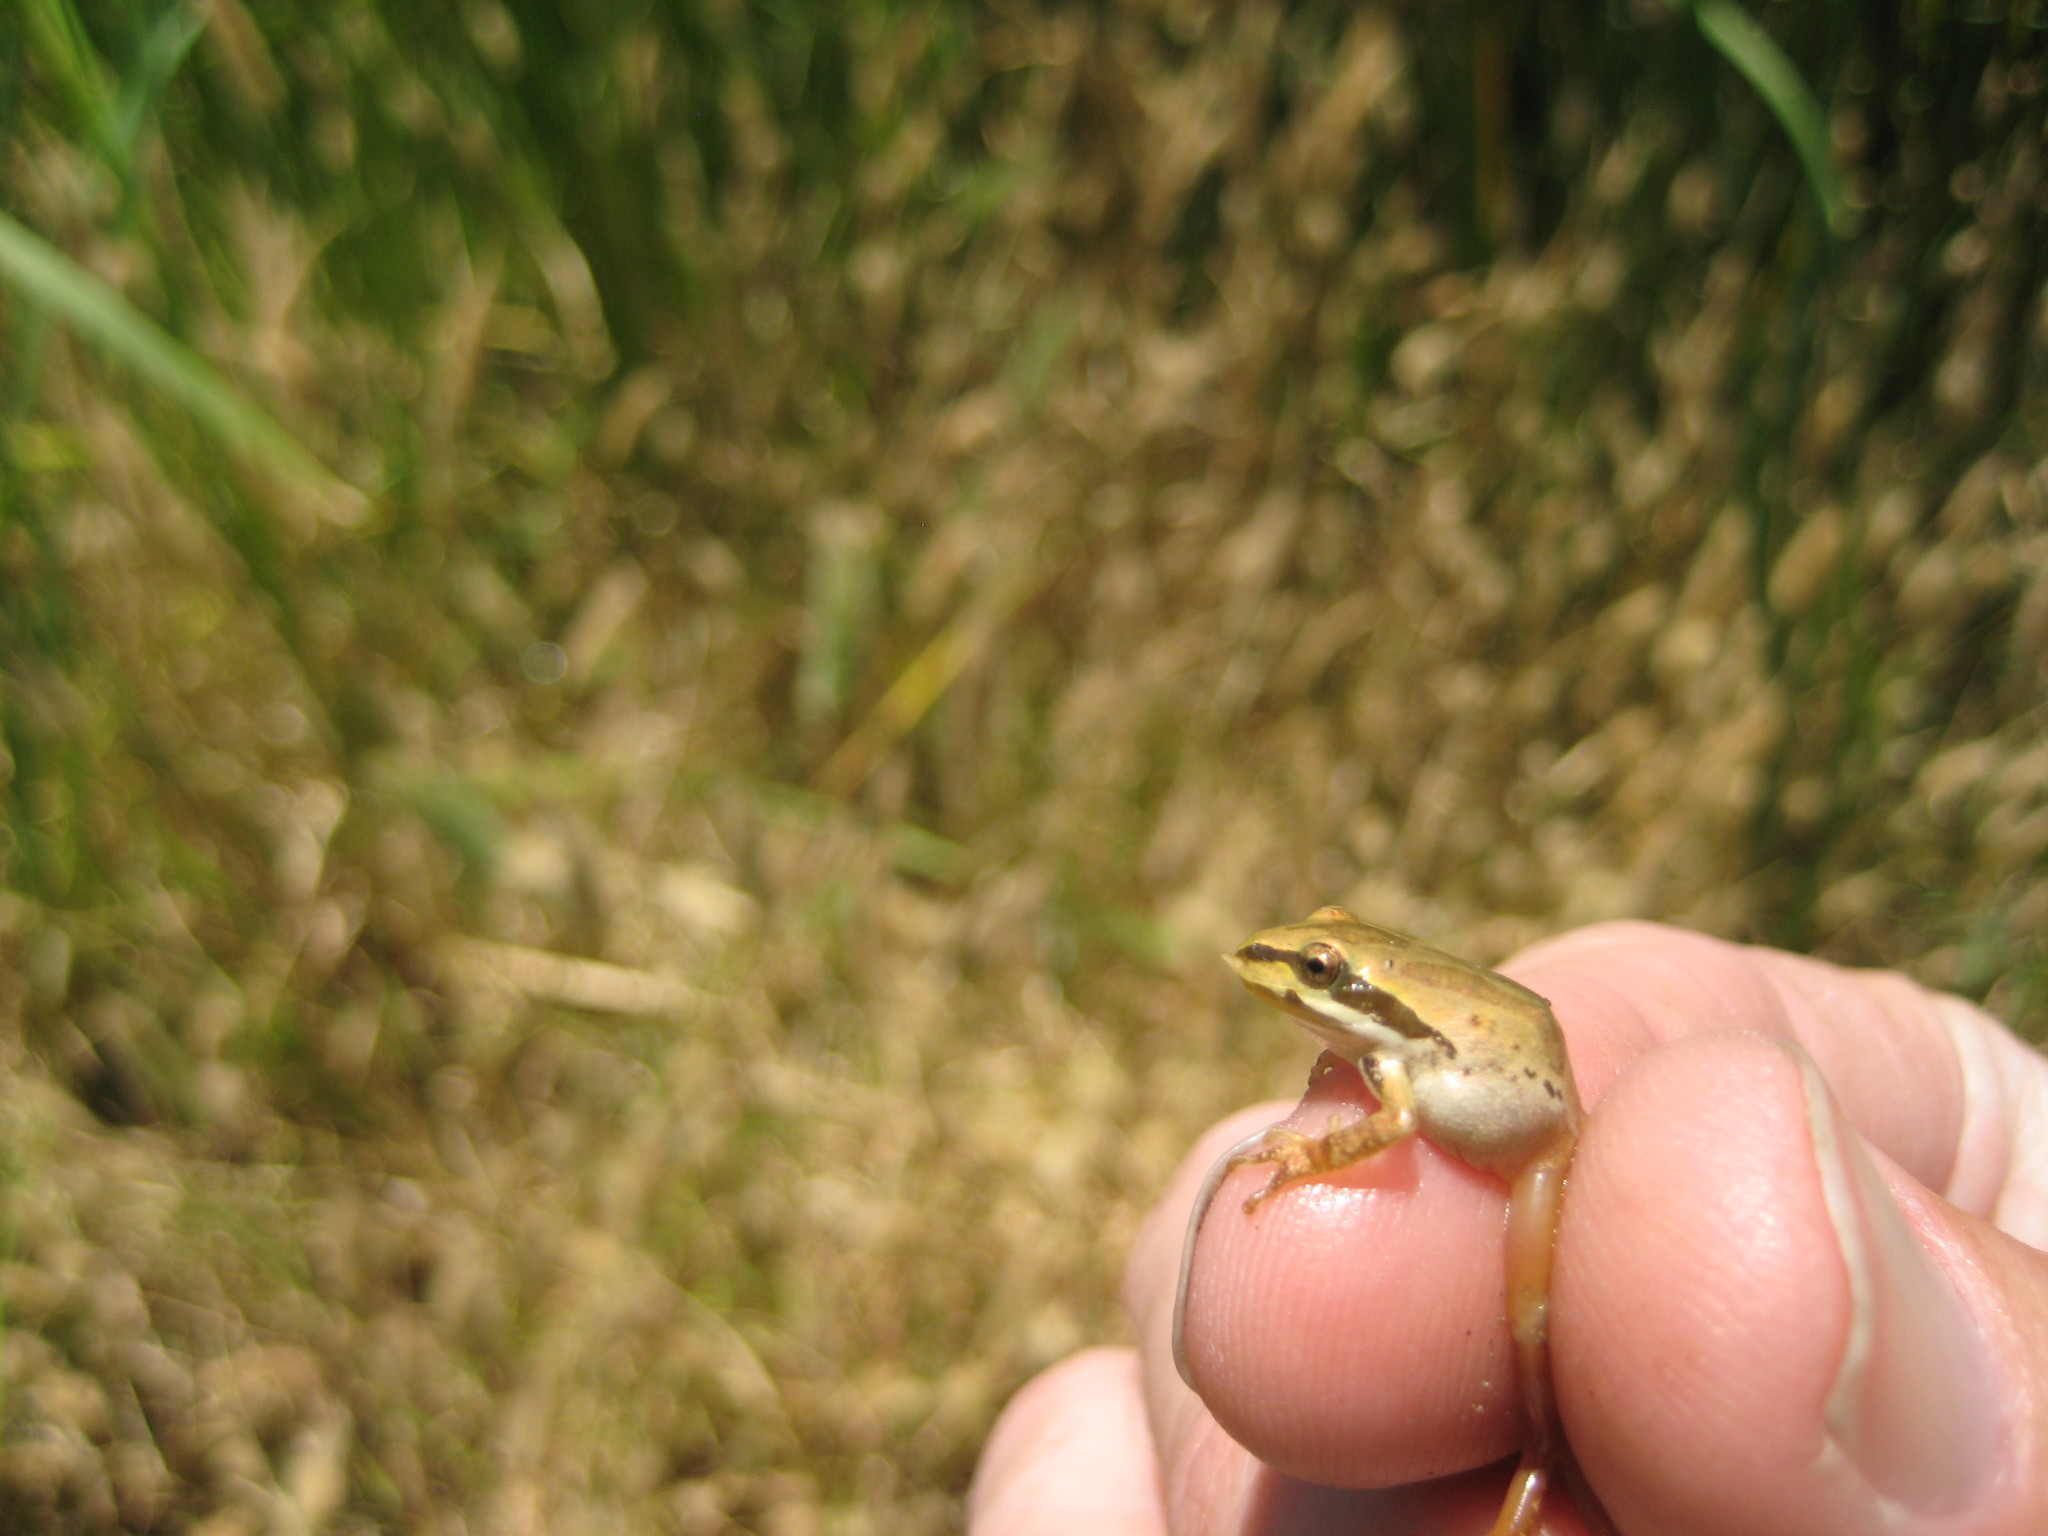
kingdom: Animalia
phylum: Chordata
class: Amphibia
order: Anura
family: Hylidae
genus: Pseudacris
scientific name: Pseudacris regilla
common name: Pacific chorus frog
